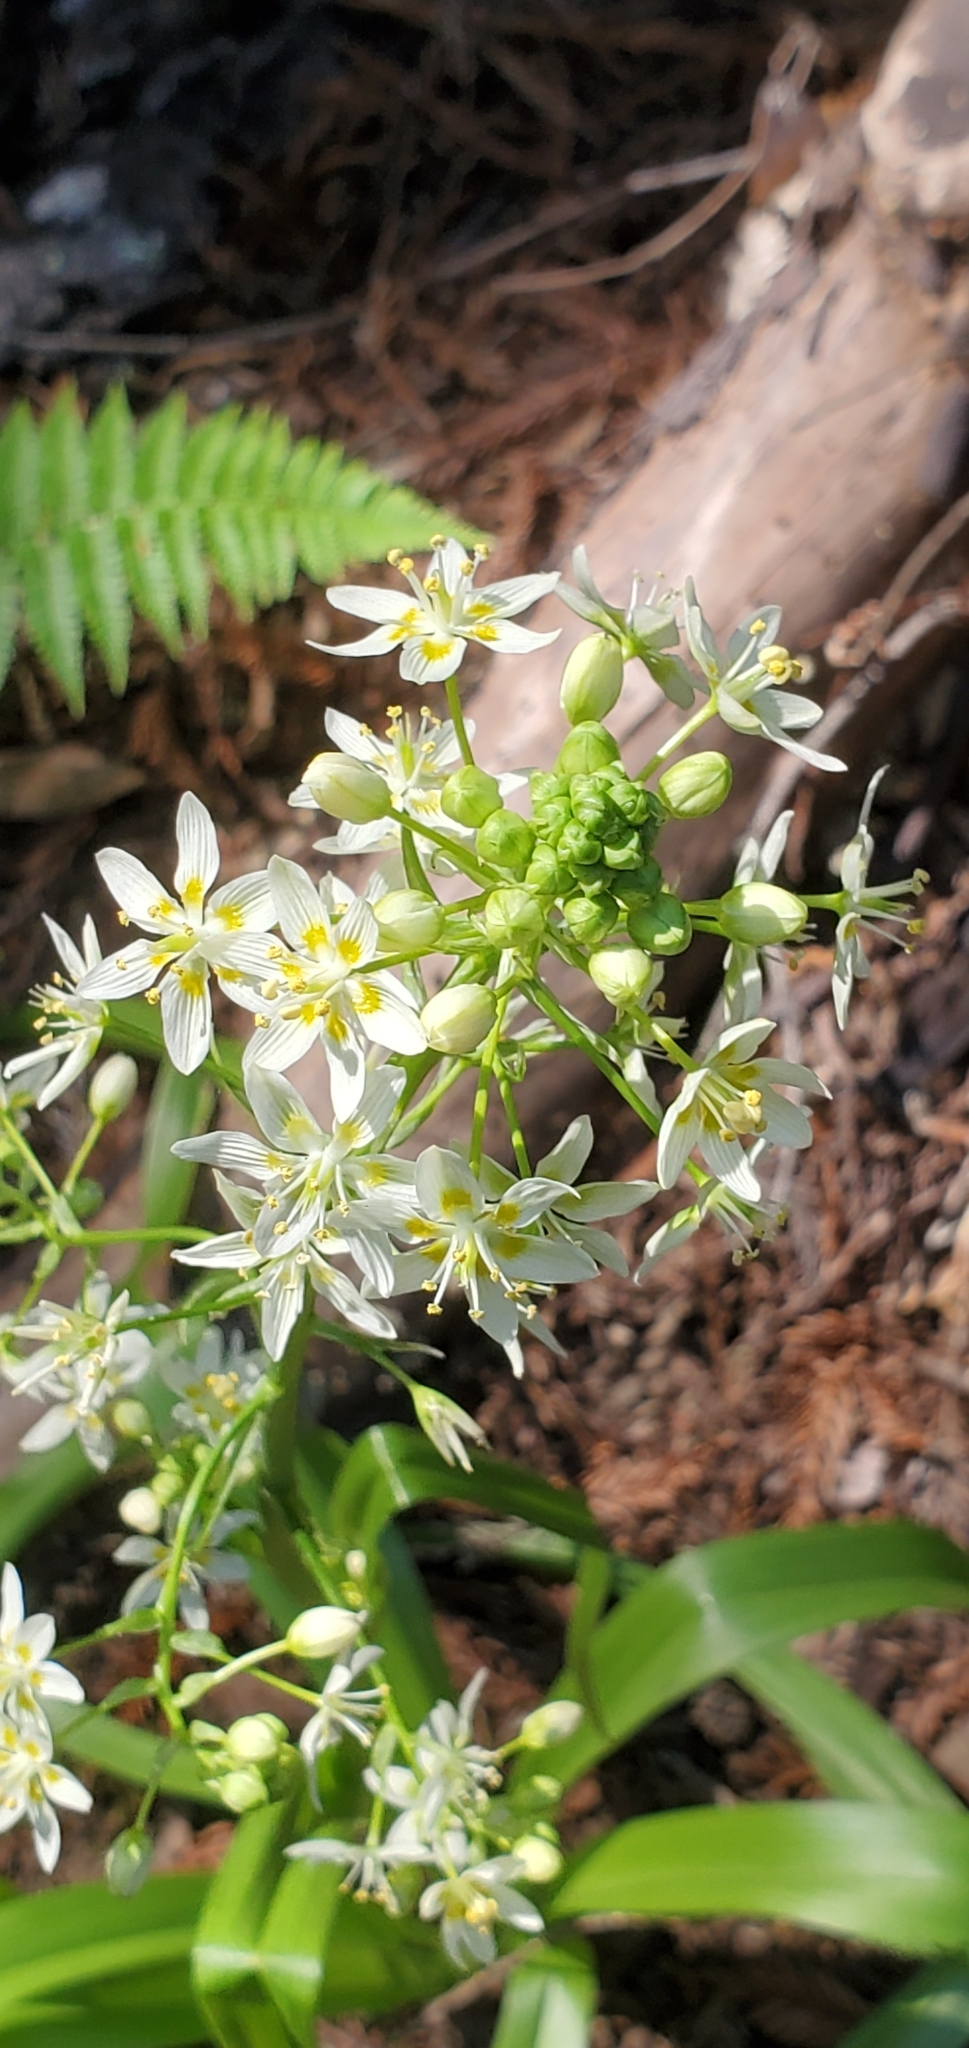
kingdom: Plantae
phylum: Tracheophyta
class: Liliopsida
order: Liliales
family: Melanthiaceae
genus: Toxicoscordion
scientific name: Toxicoscordion fremontii
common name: Fremont's death camas
